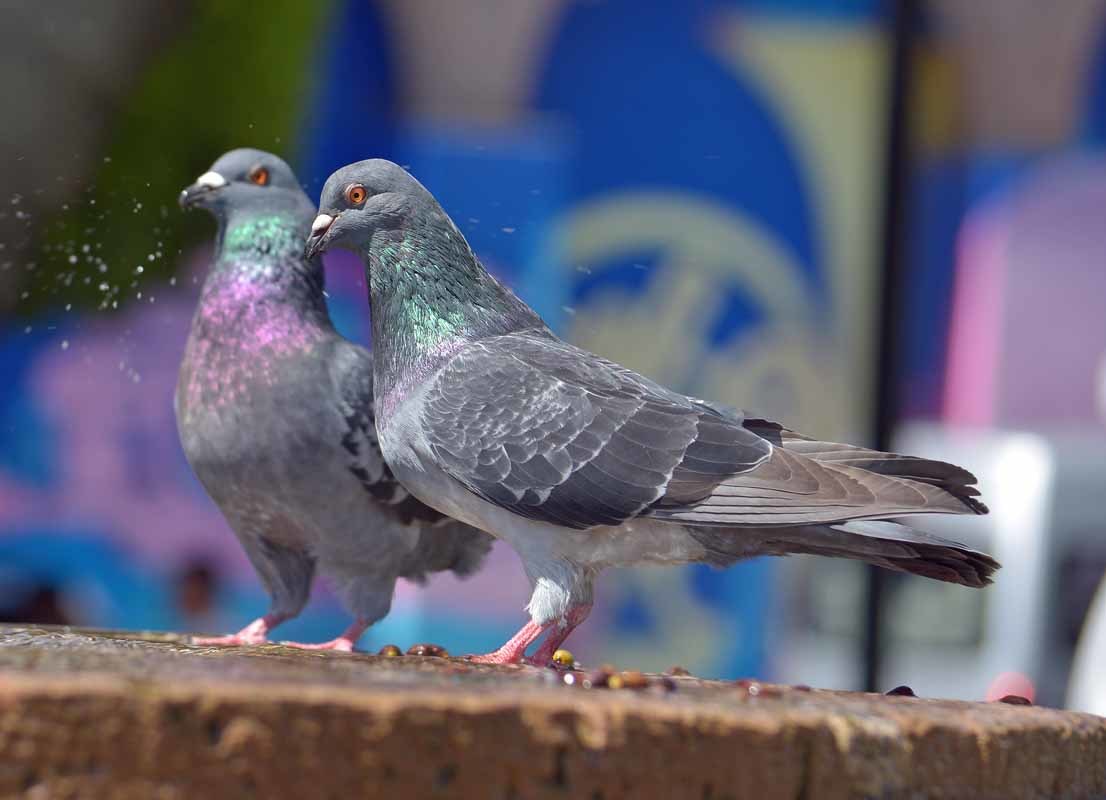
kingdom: Animalia
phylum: Chordata
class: Aves
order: Columbiformes
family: Columbidae
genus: Columba
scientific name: Columba livia
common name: Rock pigeon
